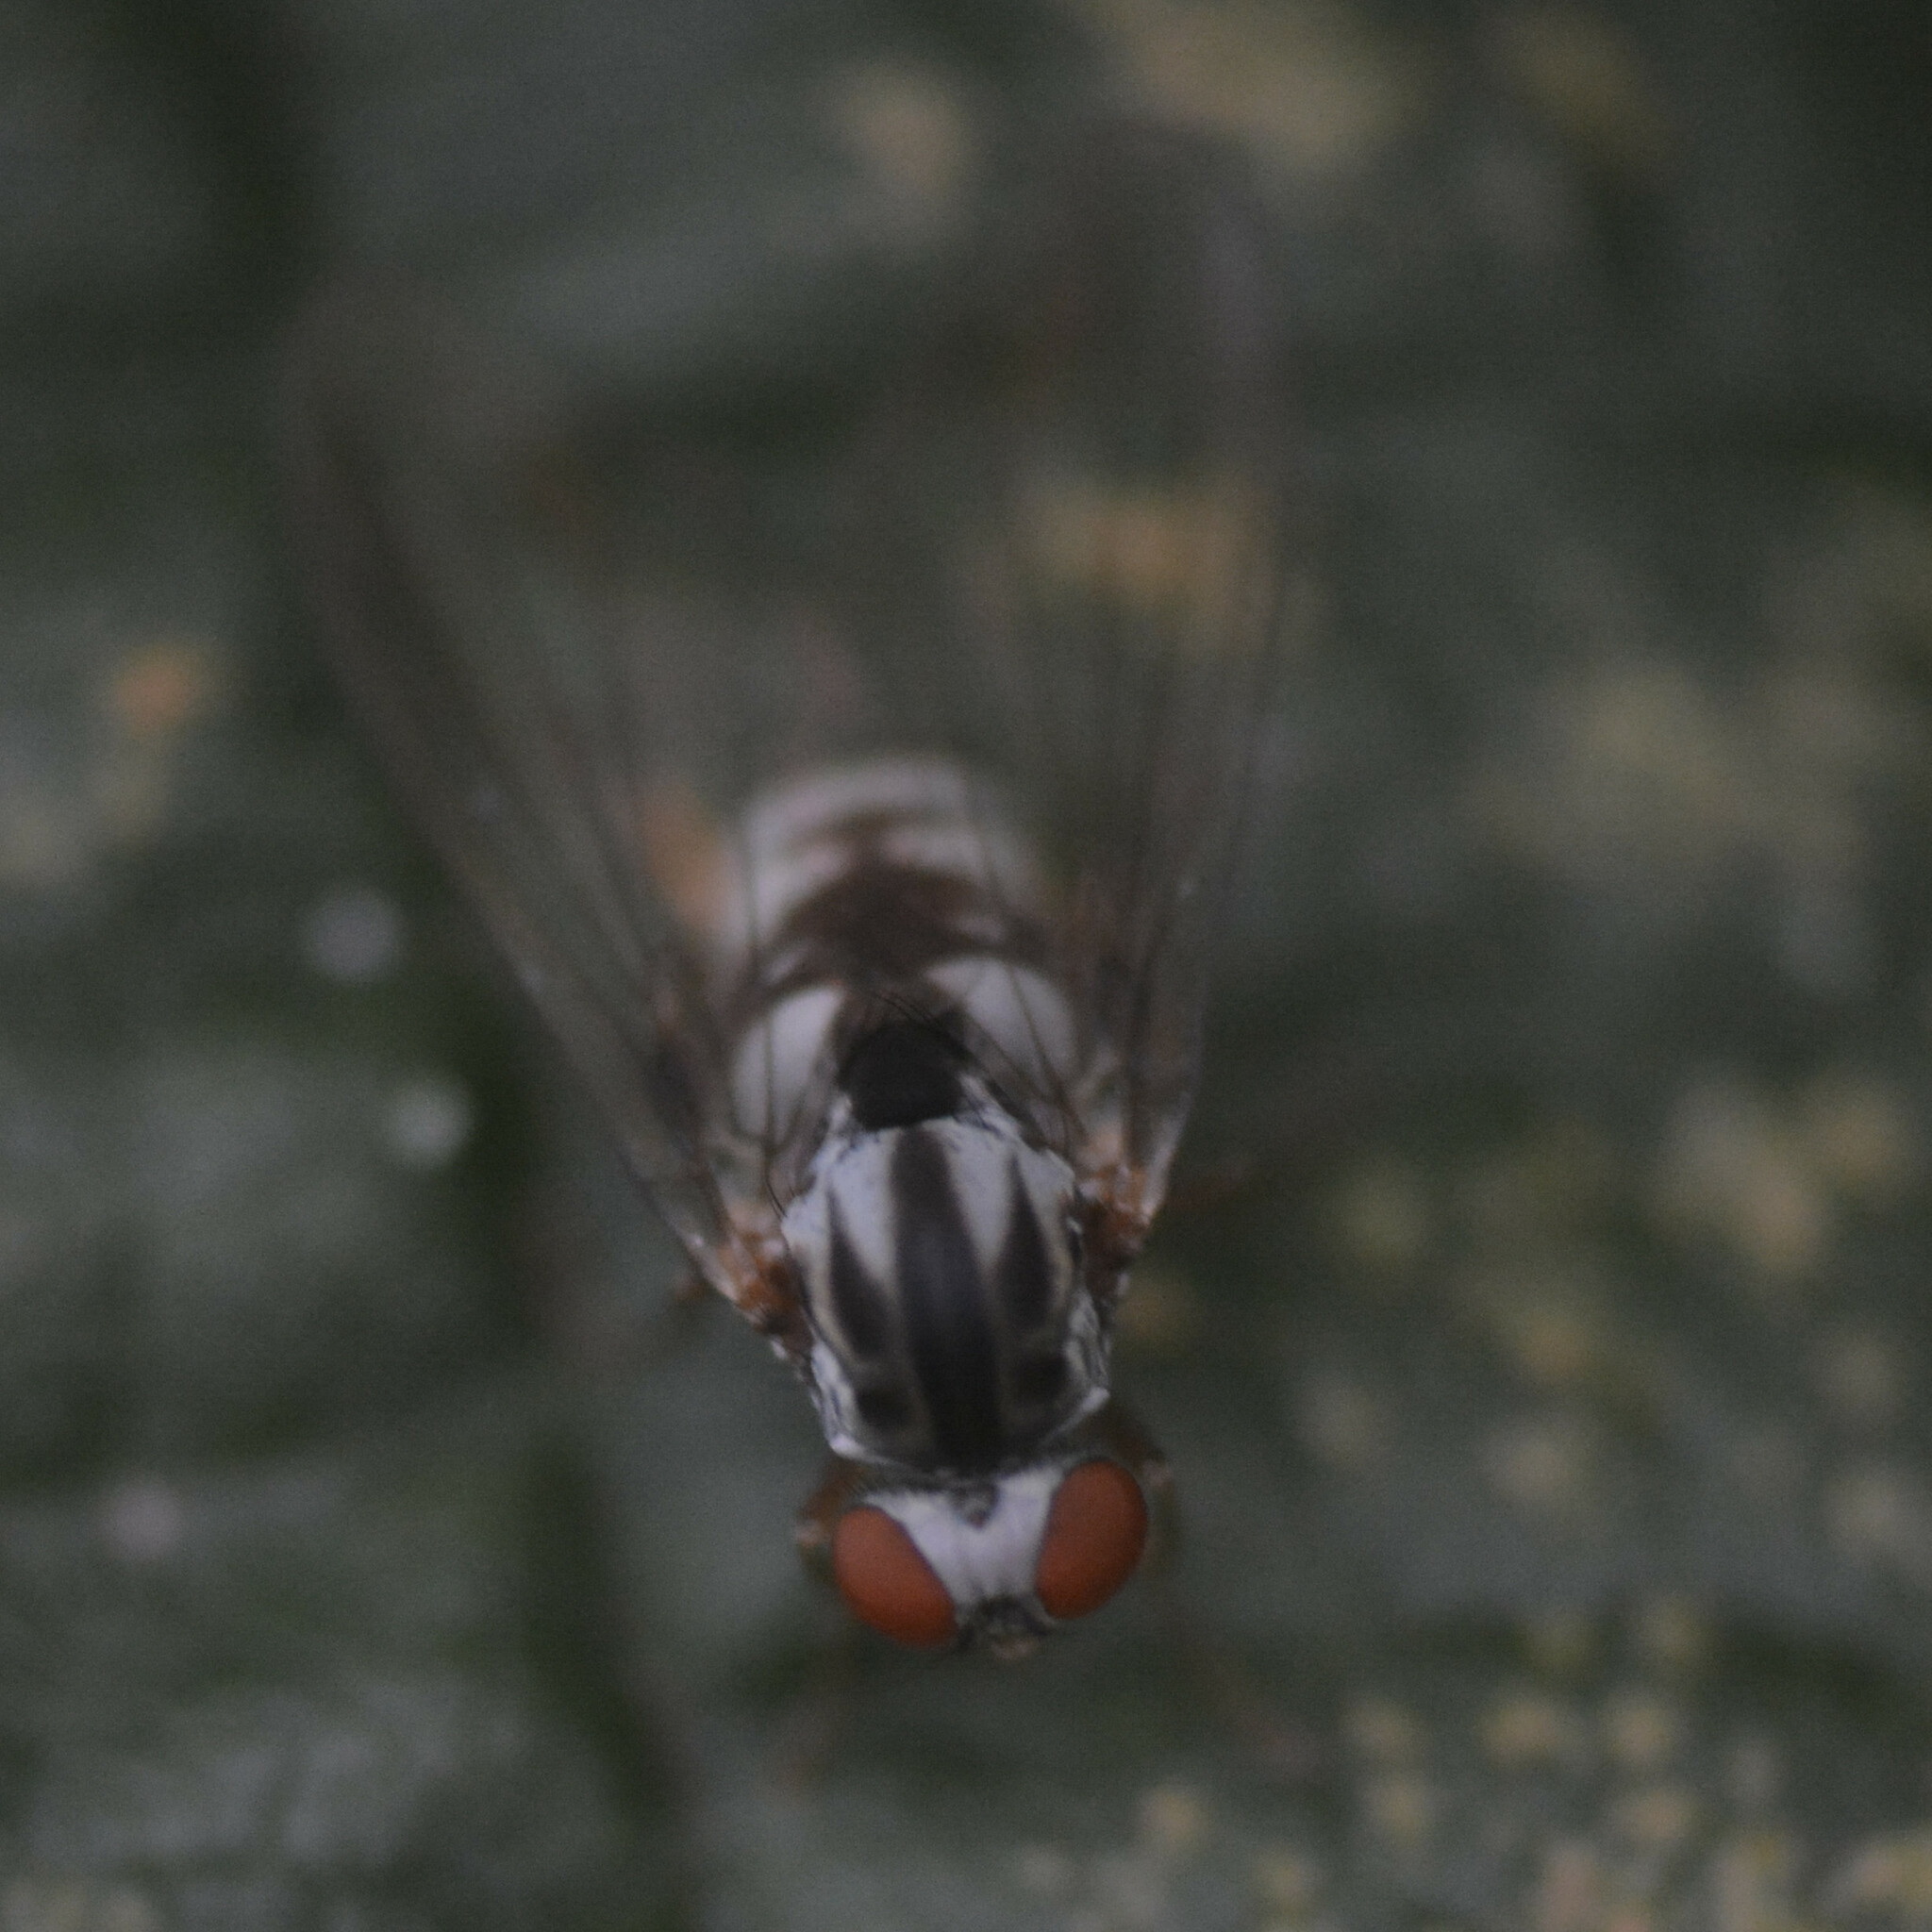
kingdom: Animalia
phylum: Arthropoda
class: Insecta
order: Diptera
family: Platypezidae
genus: Polyporivora
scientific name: Polyporivora picta
